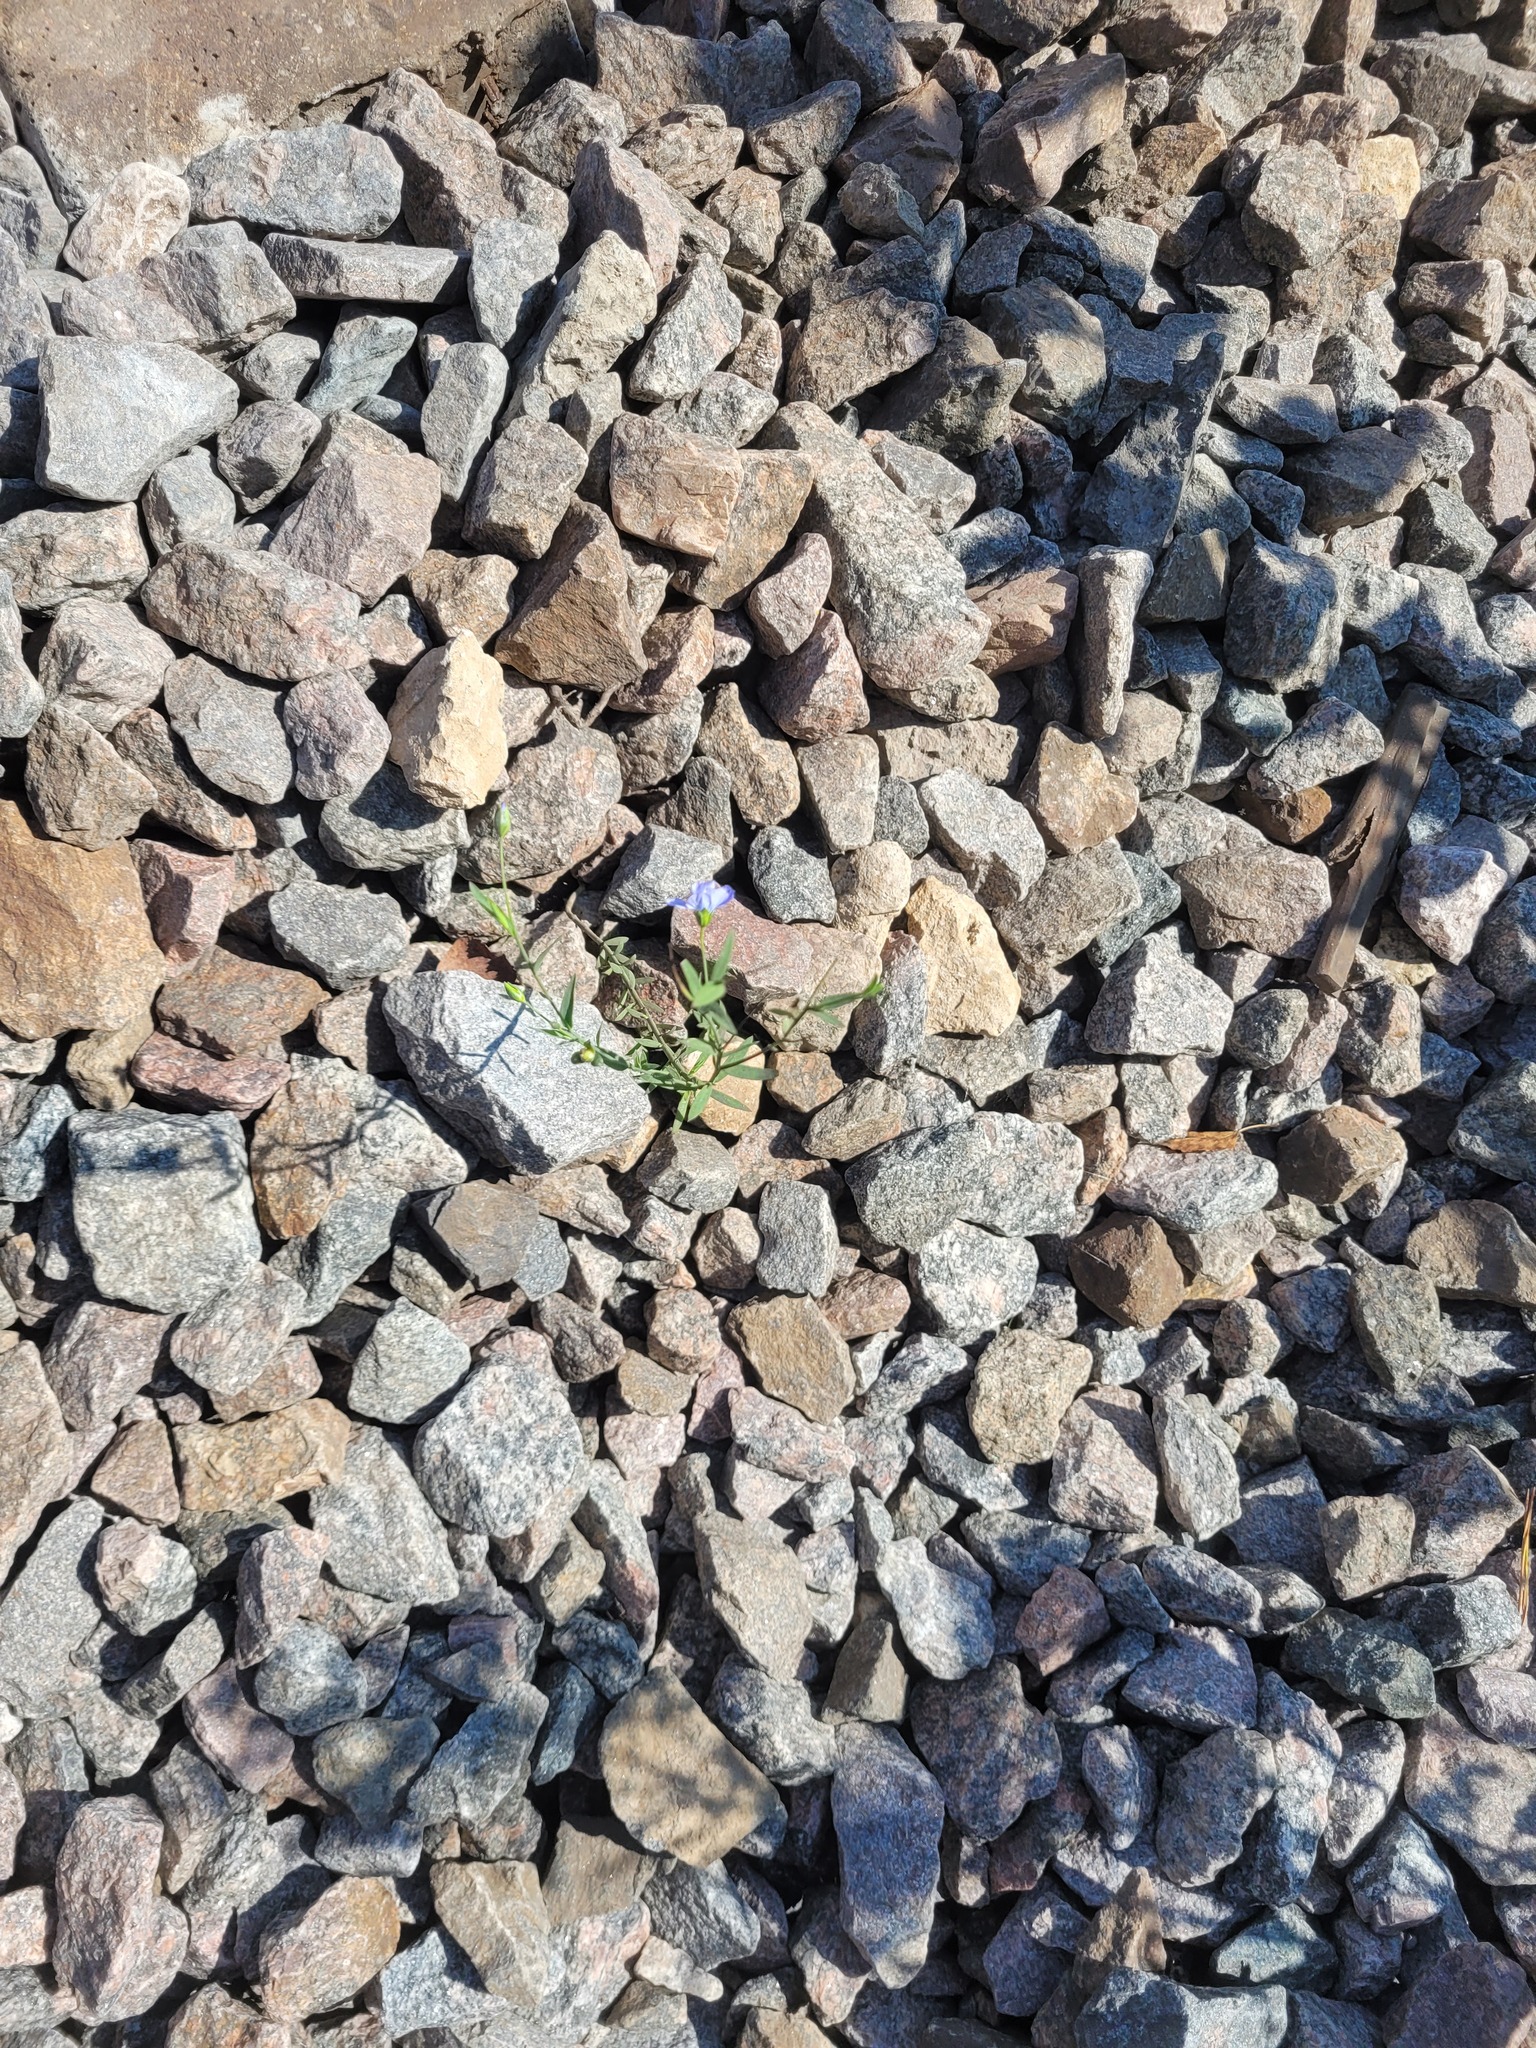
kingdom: Plantae
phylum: Tracheophyta
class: Magnoliopsida
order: Malpighiales
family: Linaceae
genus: Linum
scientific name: Linum usitatissimum
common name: Flax
